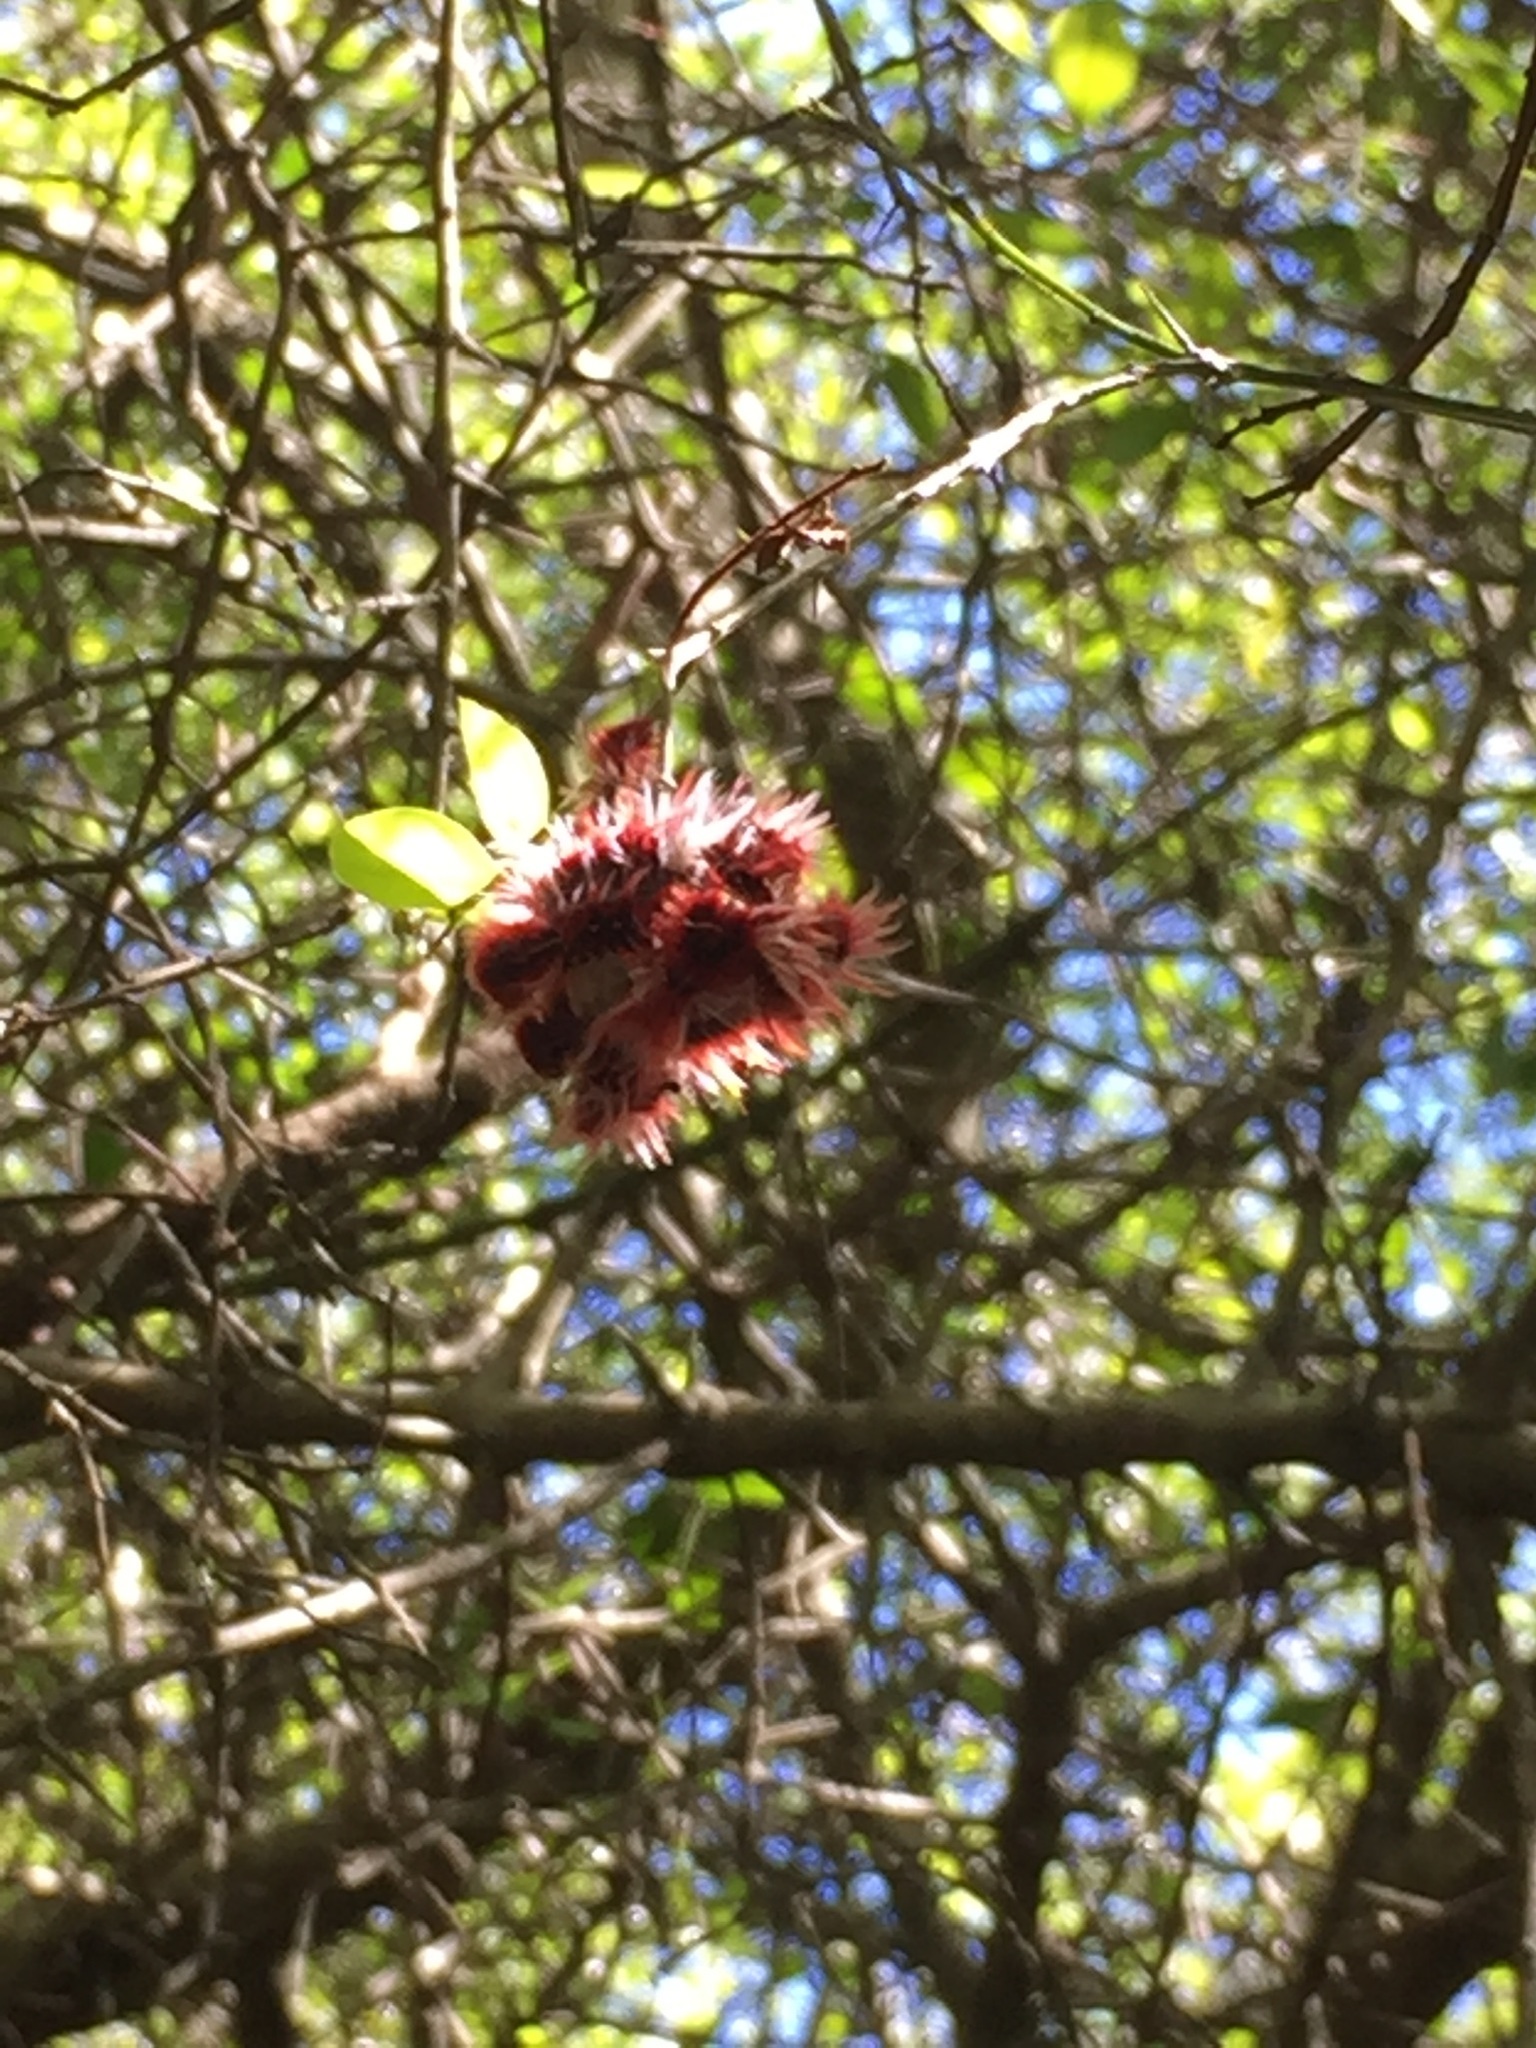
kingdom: Animalia
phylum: Arthropoda
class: Insecta
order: Lepidoptera
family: Nymphalidae
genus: Morpho
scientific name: Morpho epistrophus
